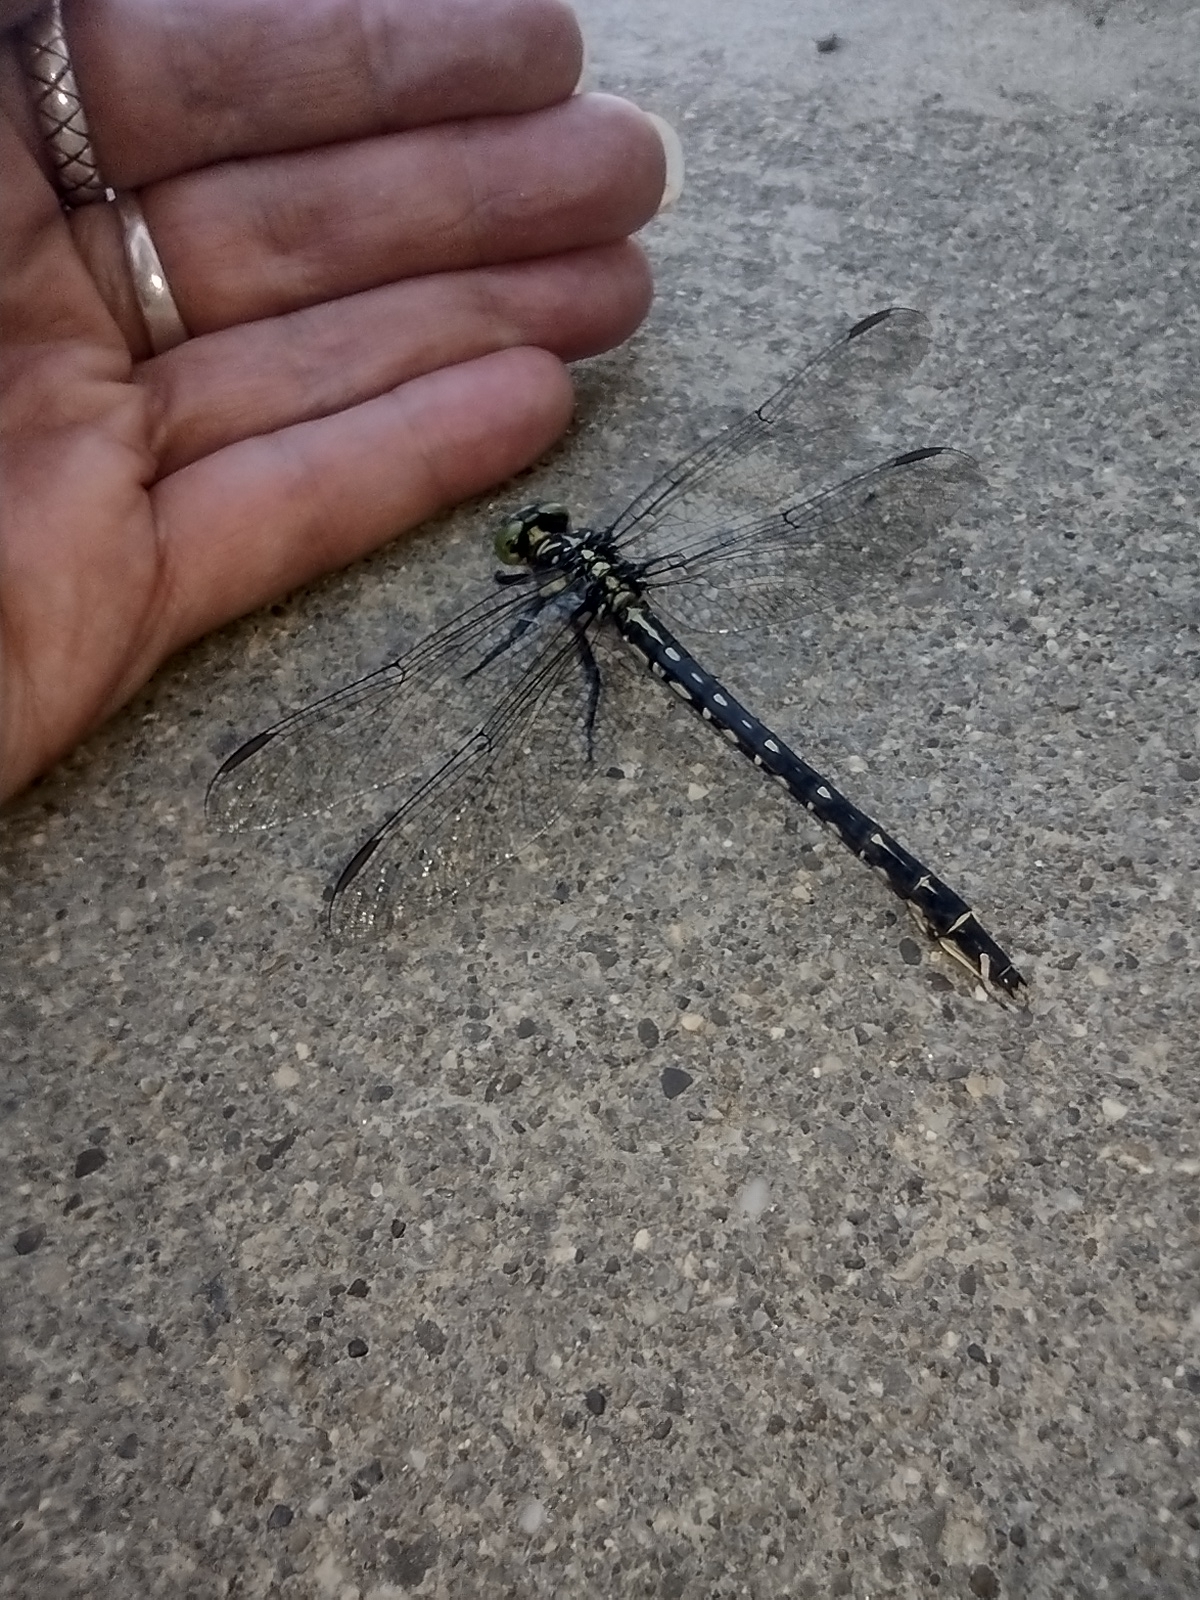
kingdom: Animalia
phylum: Arthropoda
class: Insecta
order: Odonata
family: Gomphidae
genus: Stylurus
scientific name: Stylurus spiniceps
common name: Arrow clubtail
